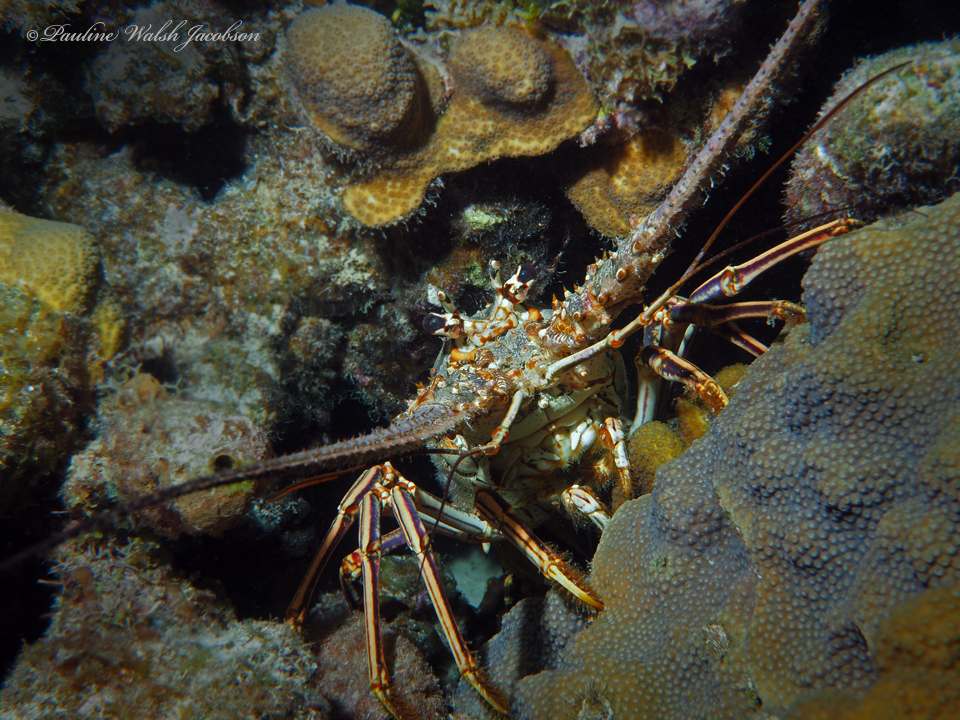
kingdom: Animalia
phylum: Arthropoda
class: Malacostraca
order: Decapoda
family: Palinuridae
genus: Panulirus
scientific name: Panulirus argus
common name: Caribbean spiny lobster
